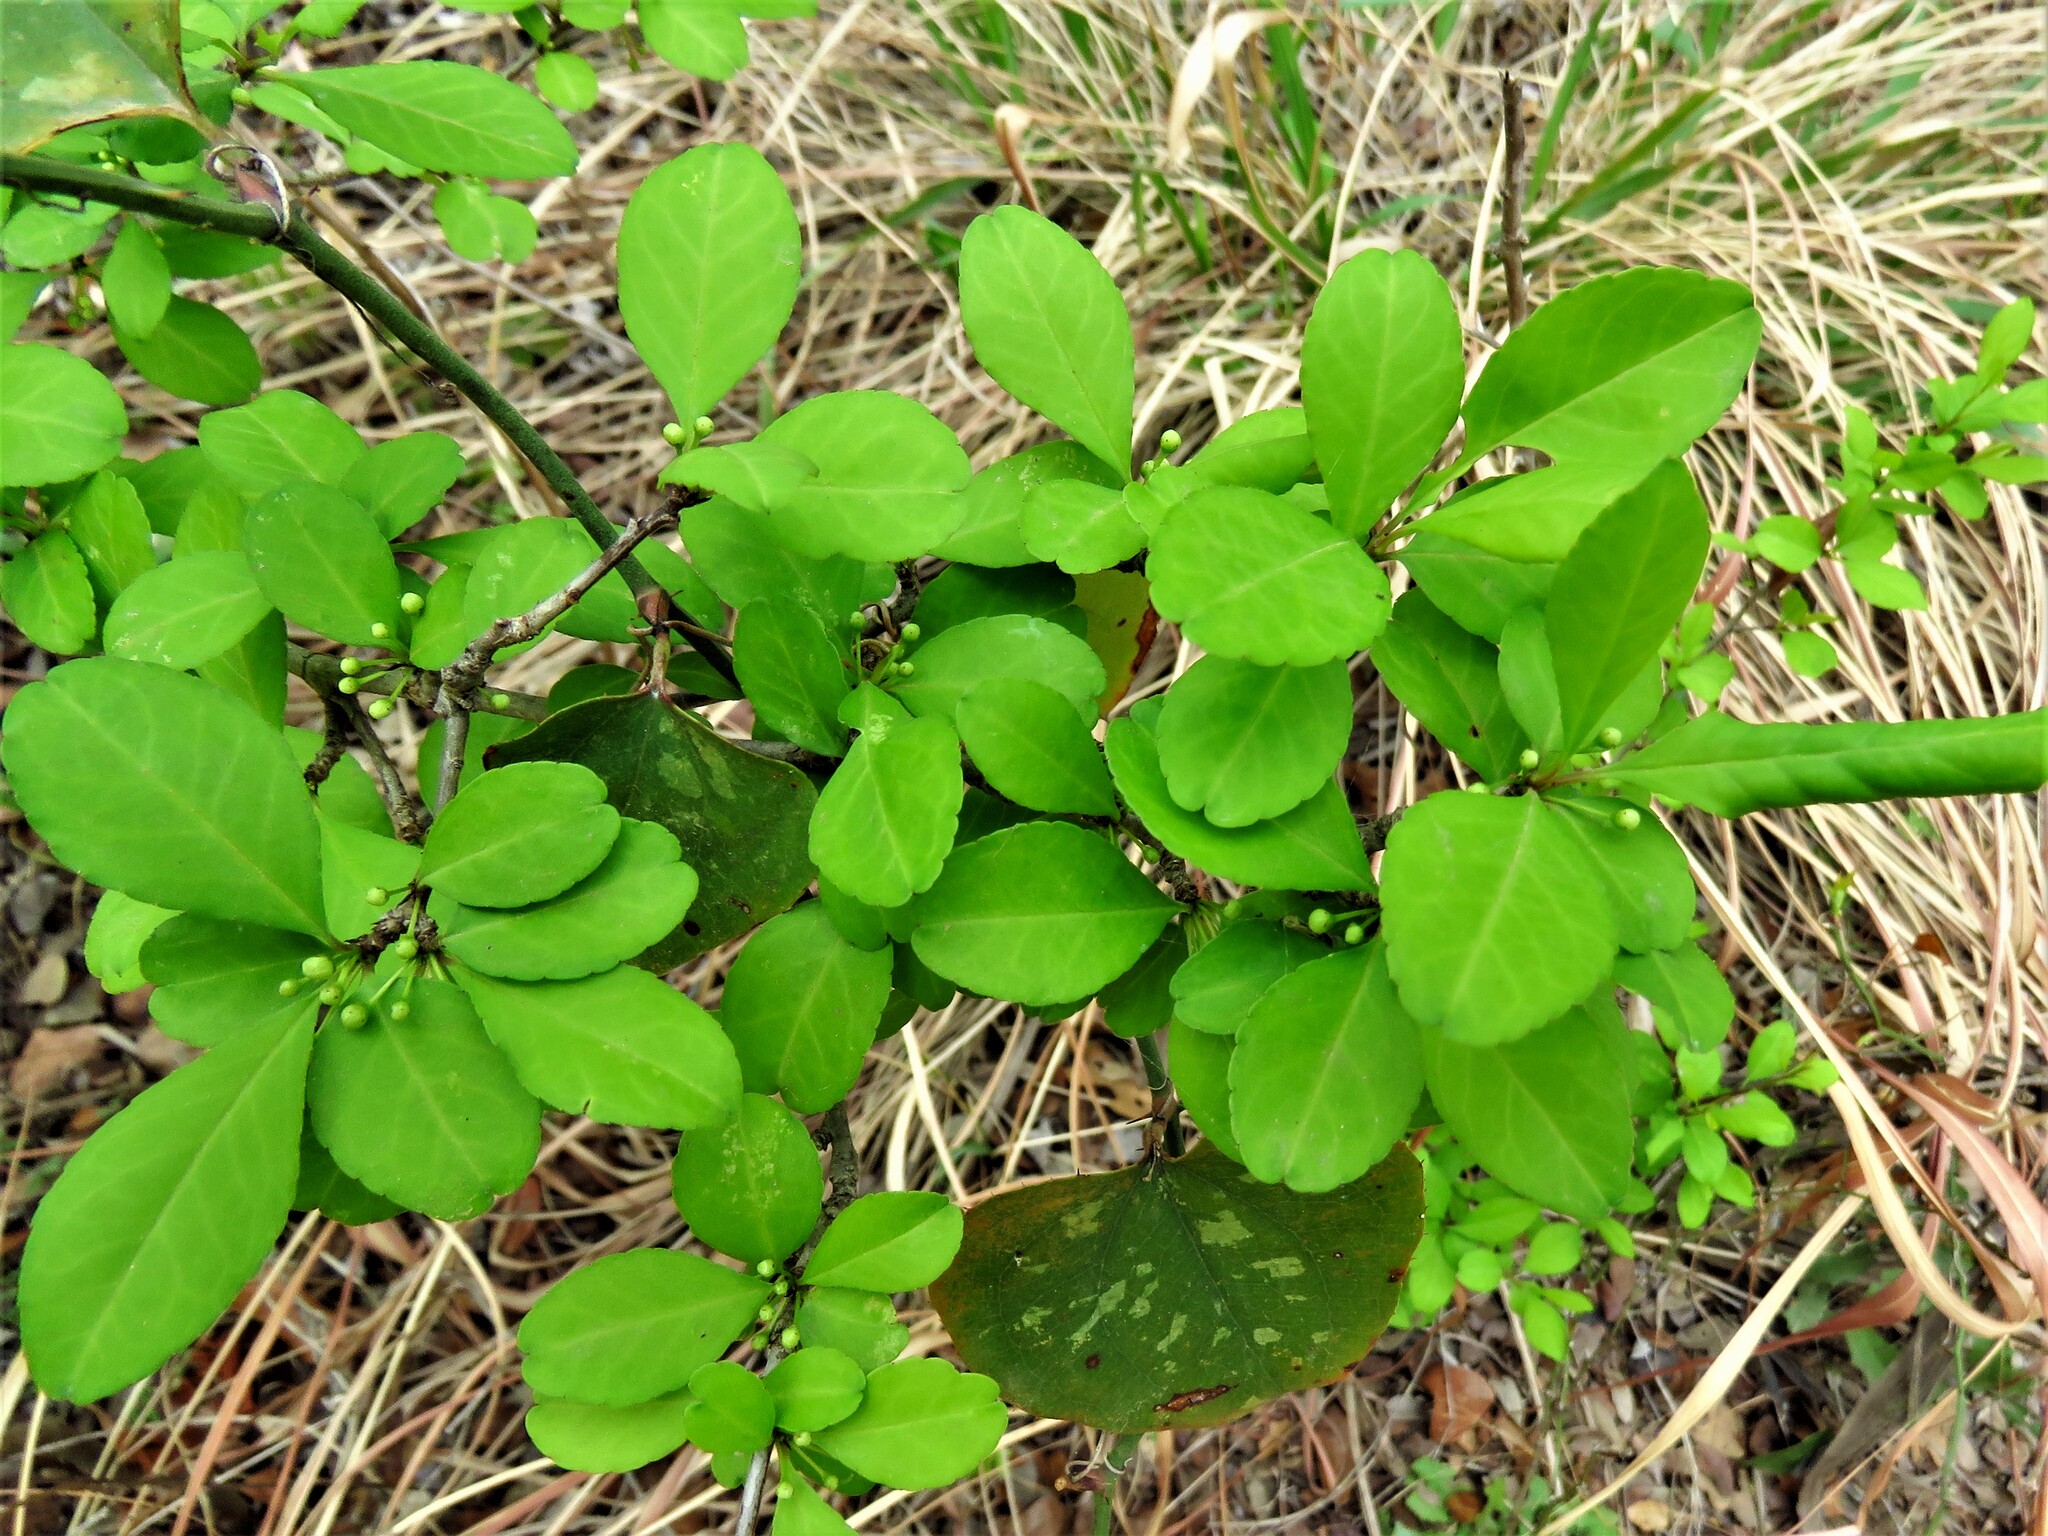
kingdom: Plantae
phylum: Tracheophyta
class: Magnoliopsida
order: Aquifoliales
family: Aquifoliaceae
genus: Ilex
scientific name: Ilex decidua
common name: Possum-haw
